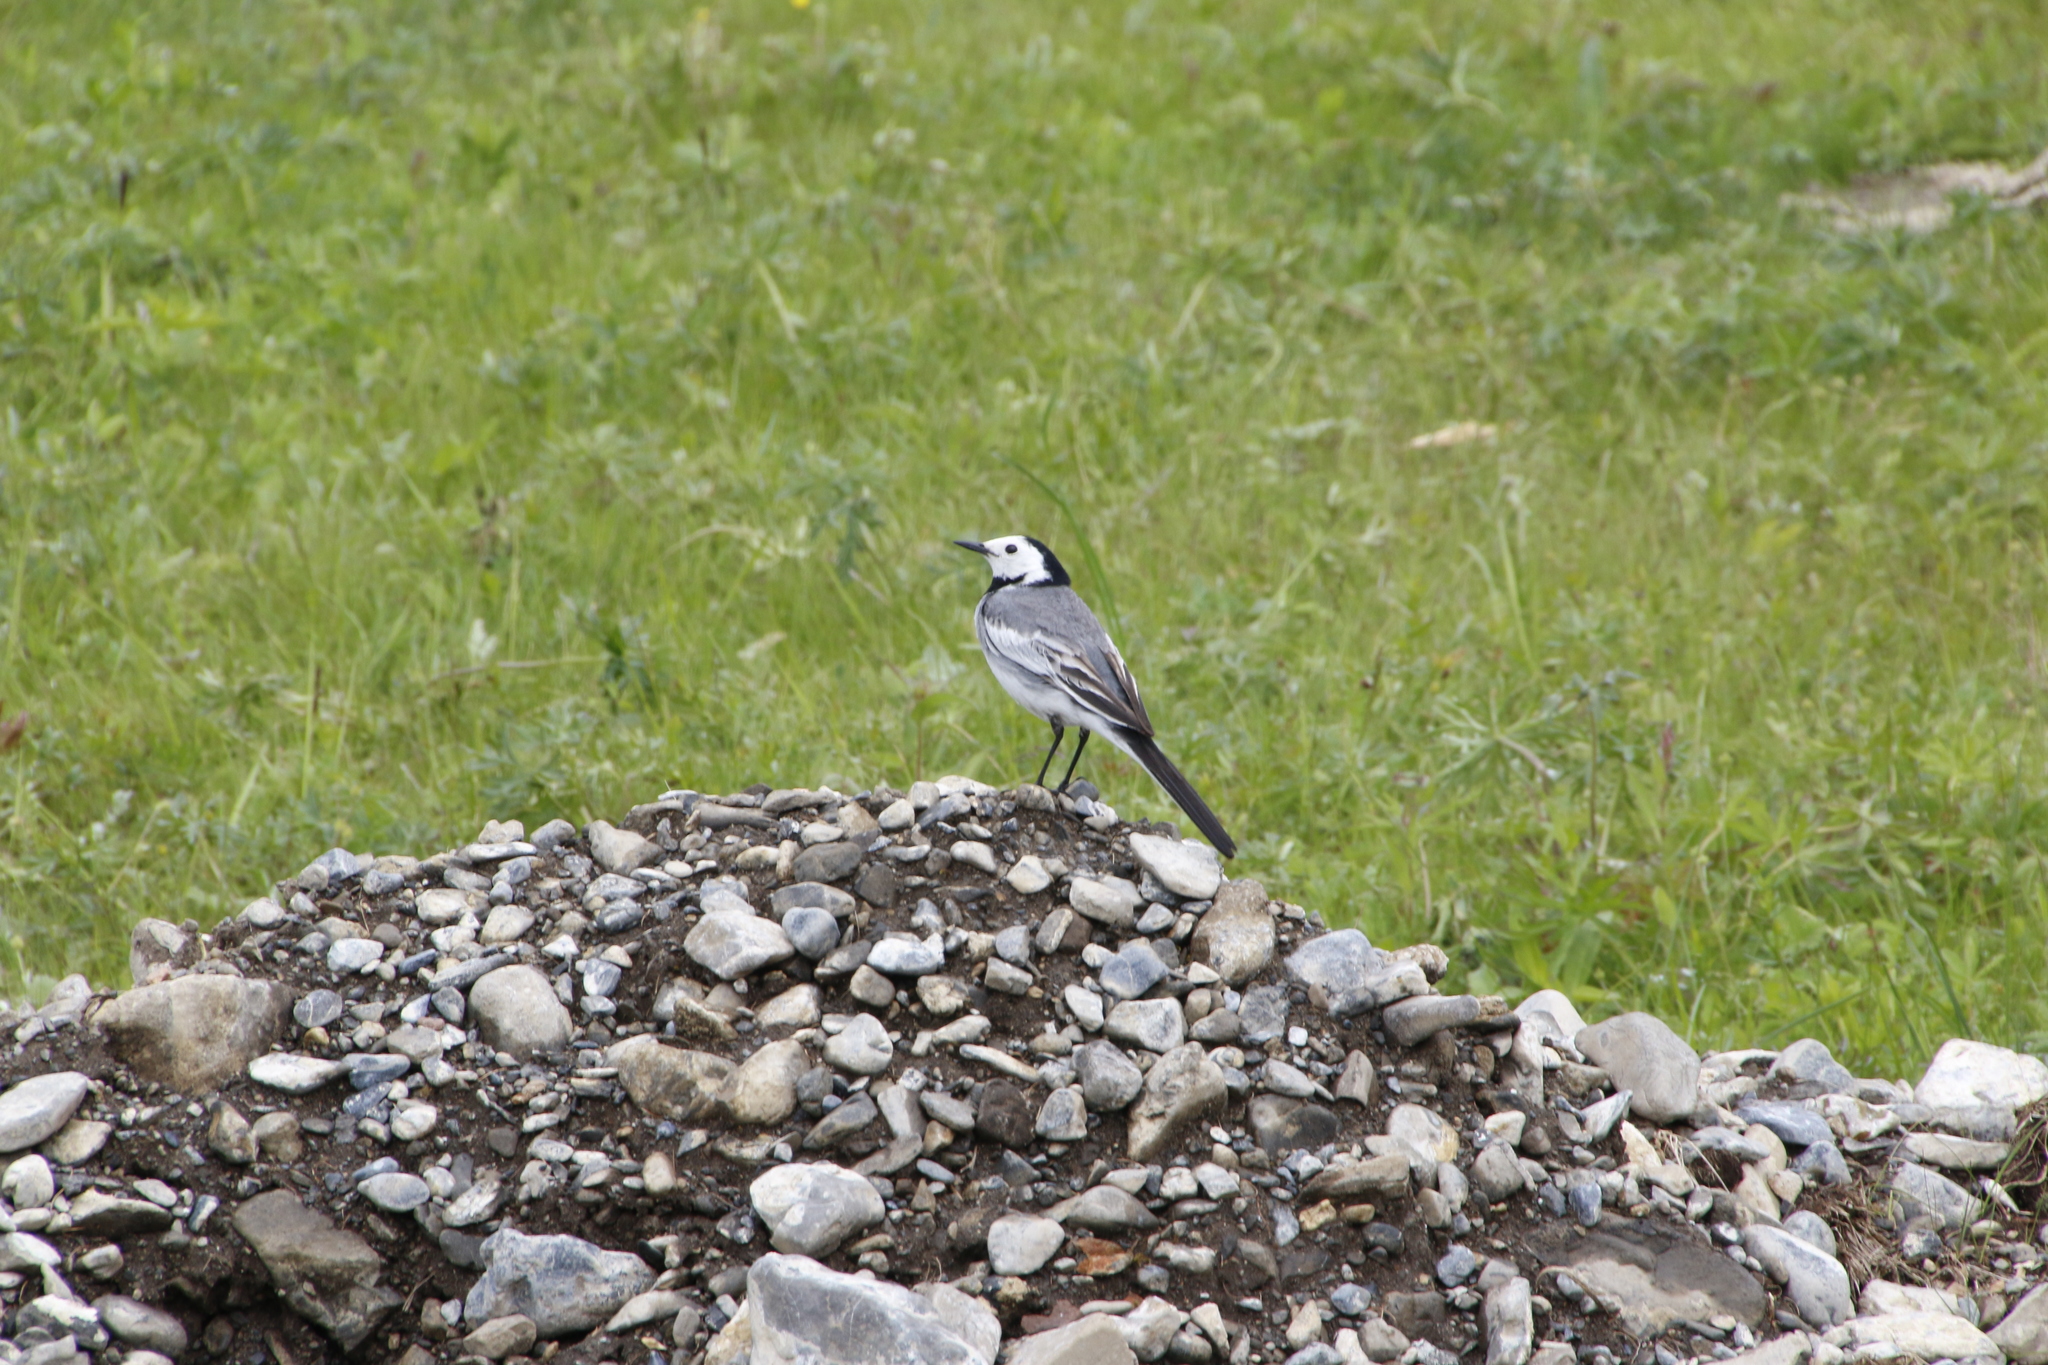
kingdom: Animalia
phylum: Chordata
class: Aves
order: Passeriformes
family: Motacillidae
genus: Motacilla
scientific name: Motacilla alba
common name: White wagtail
